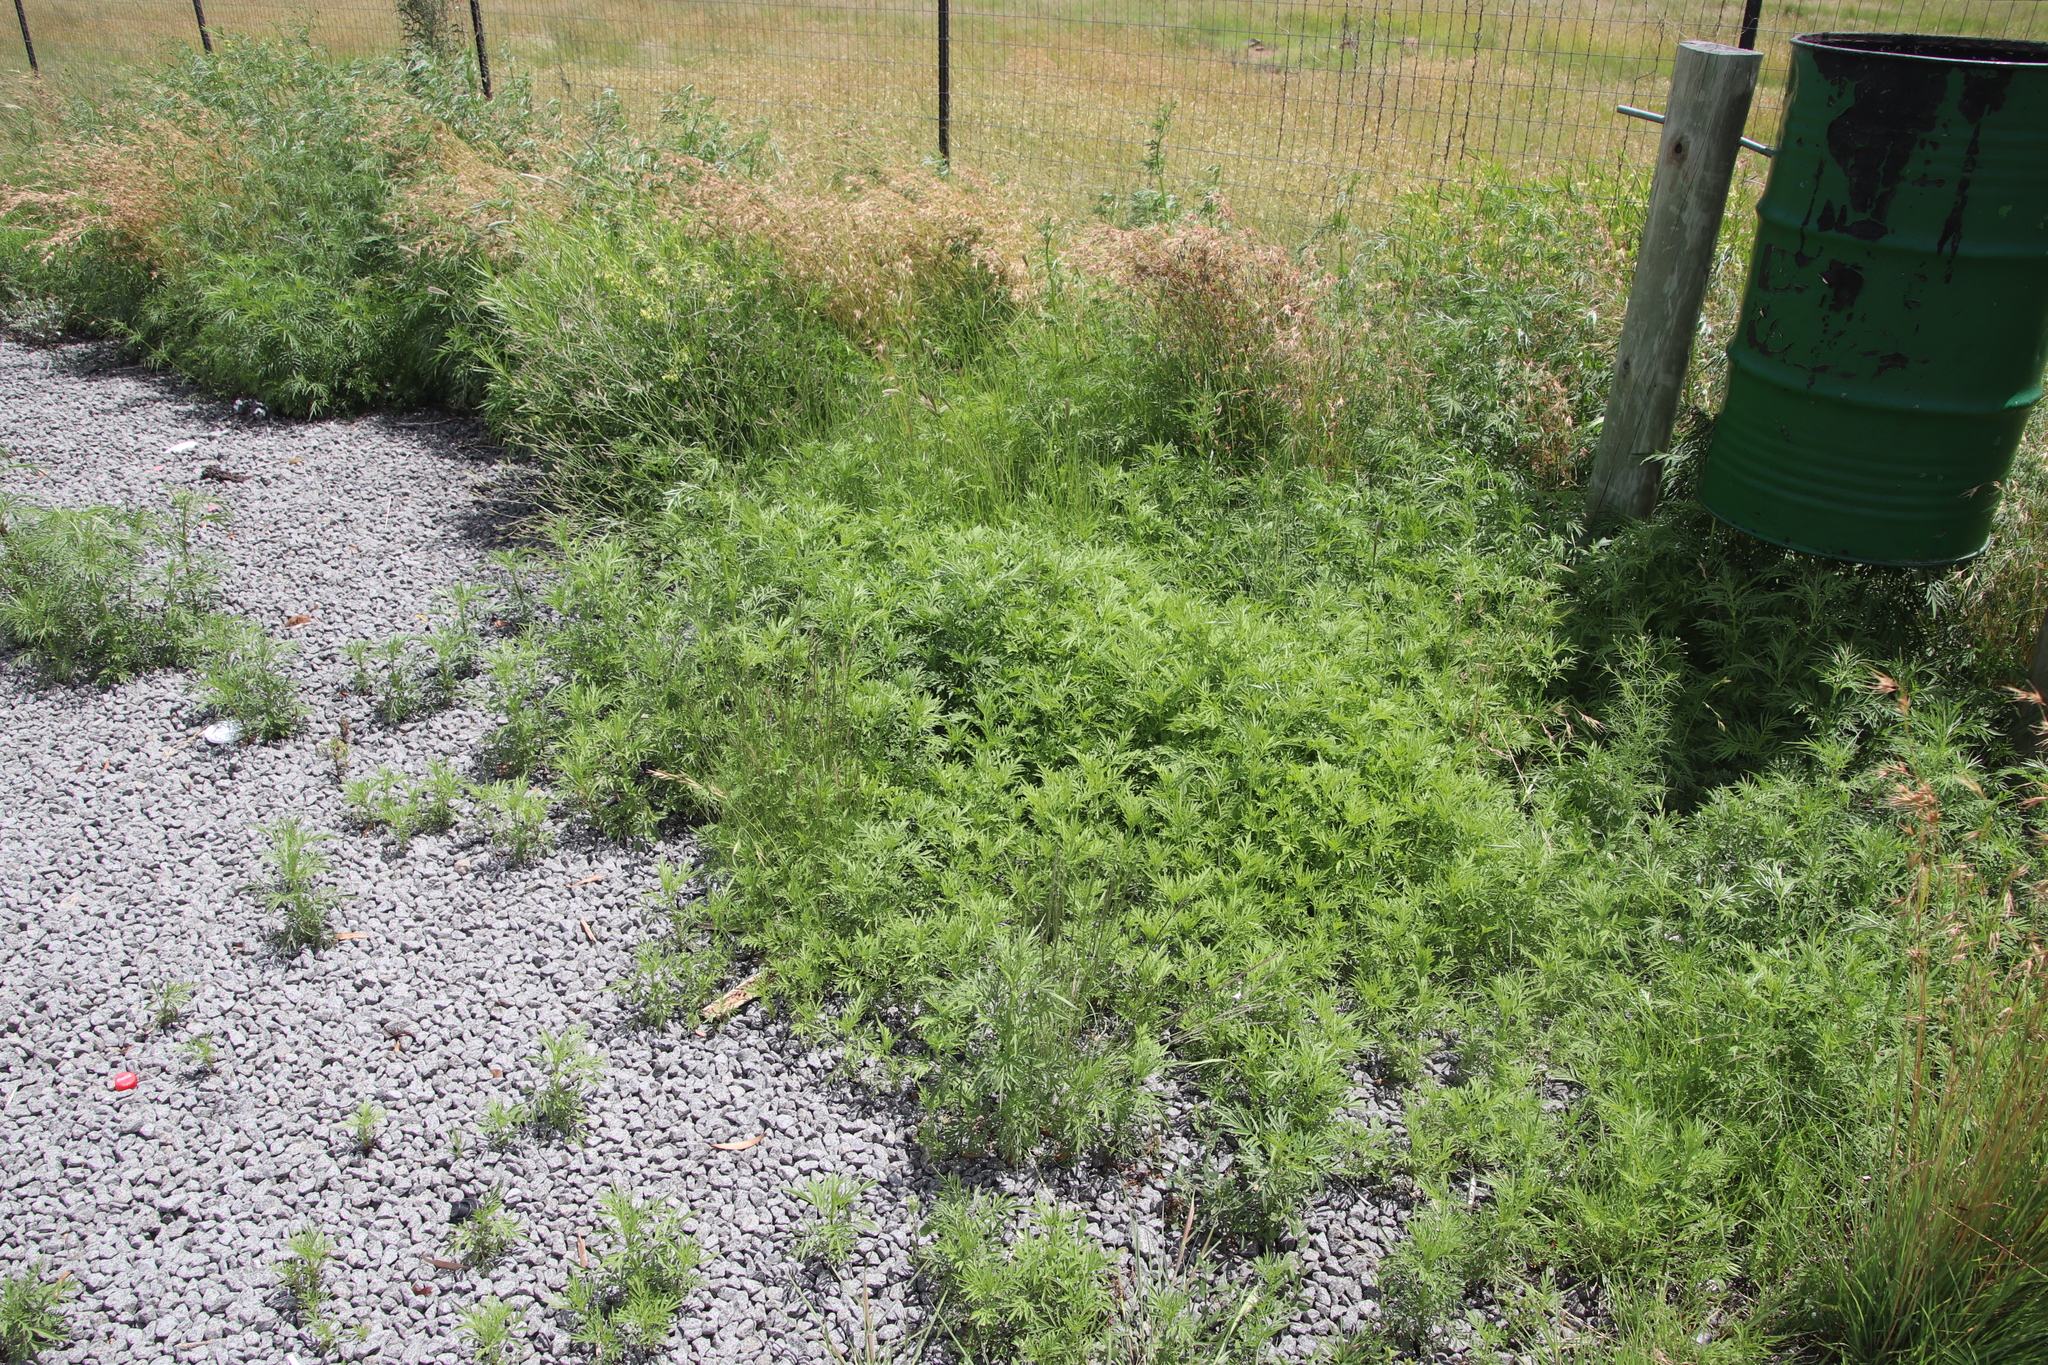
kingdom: Plantae
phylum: Tracheophyta
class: Magnoliopsida
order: Asterales
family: Asteraceae
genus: Tagetes
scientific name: Tagetes minuta
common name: Muster john henry
